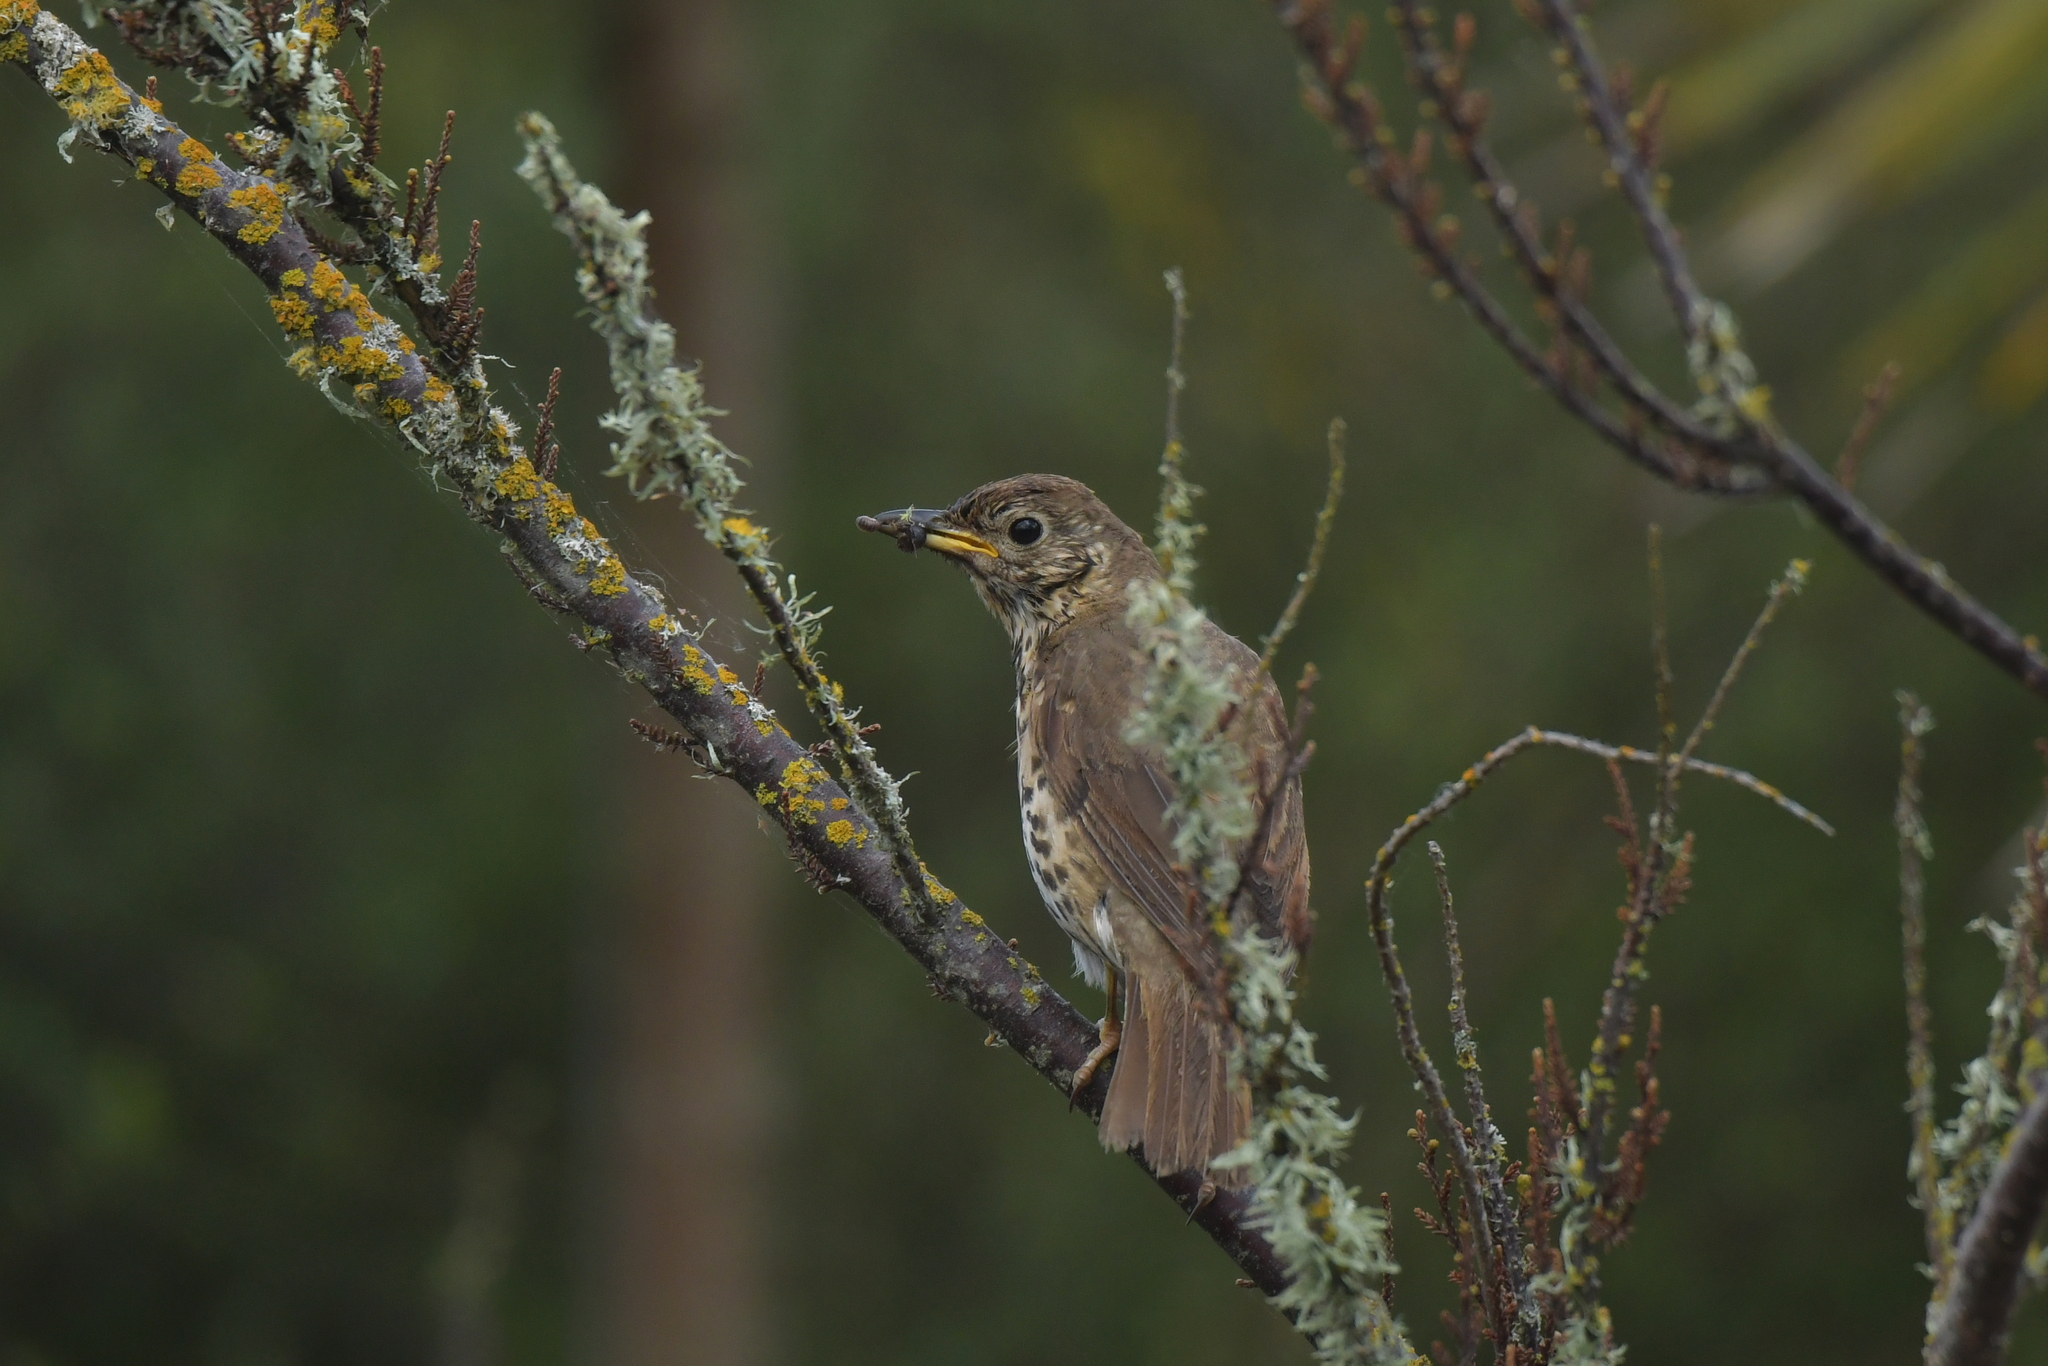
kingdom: Animalia
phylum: Chordata
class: Aves
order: Passeriformes
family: Turdidae
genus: Turdus
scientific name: Turdus philomelos
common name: Song thrush
